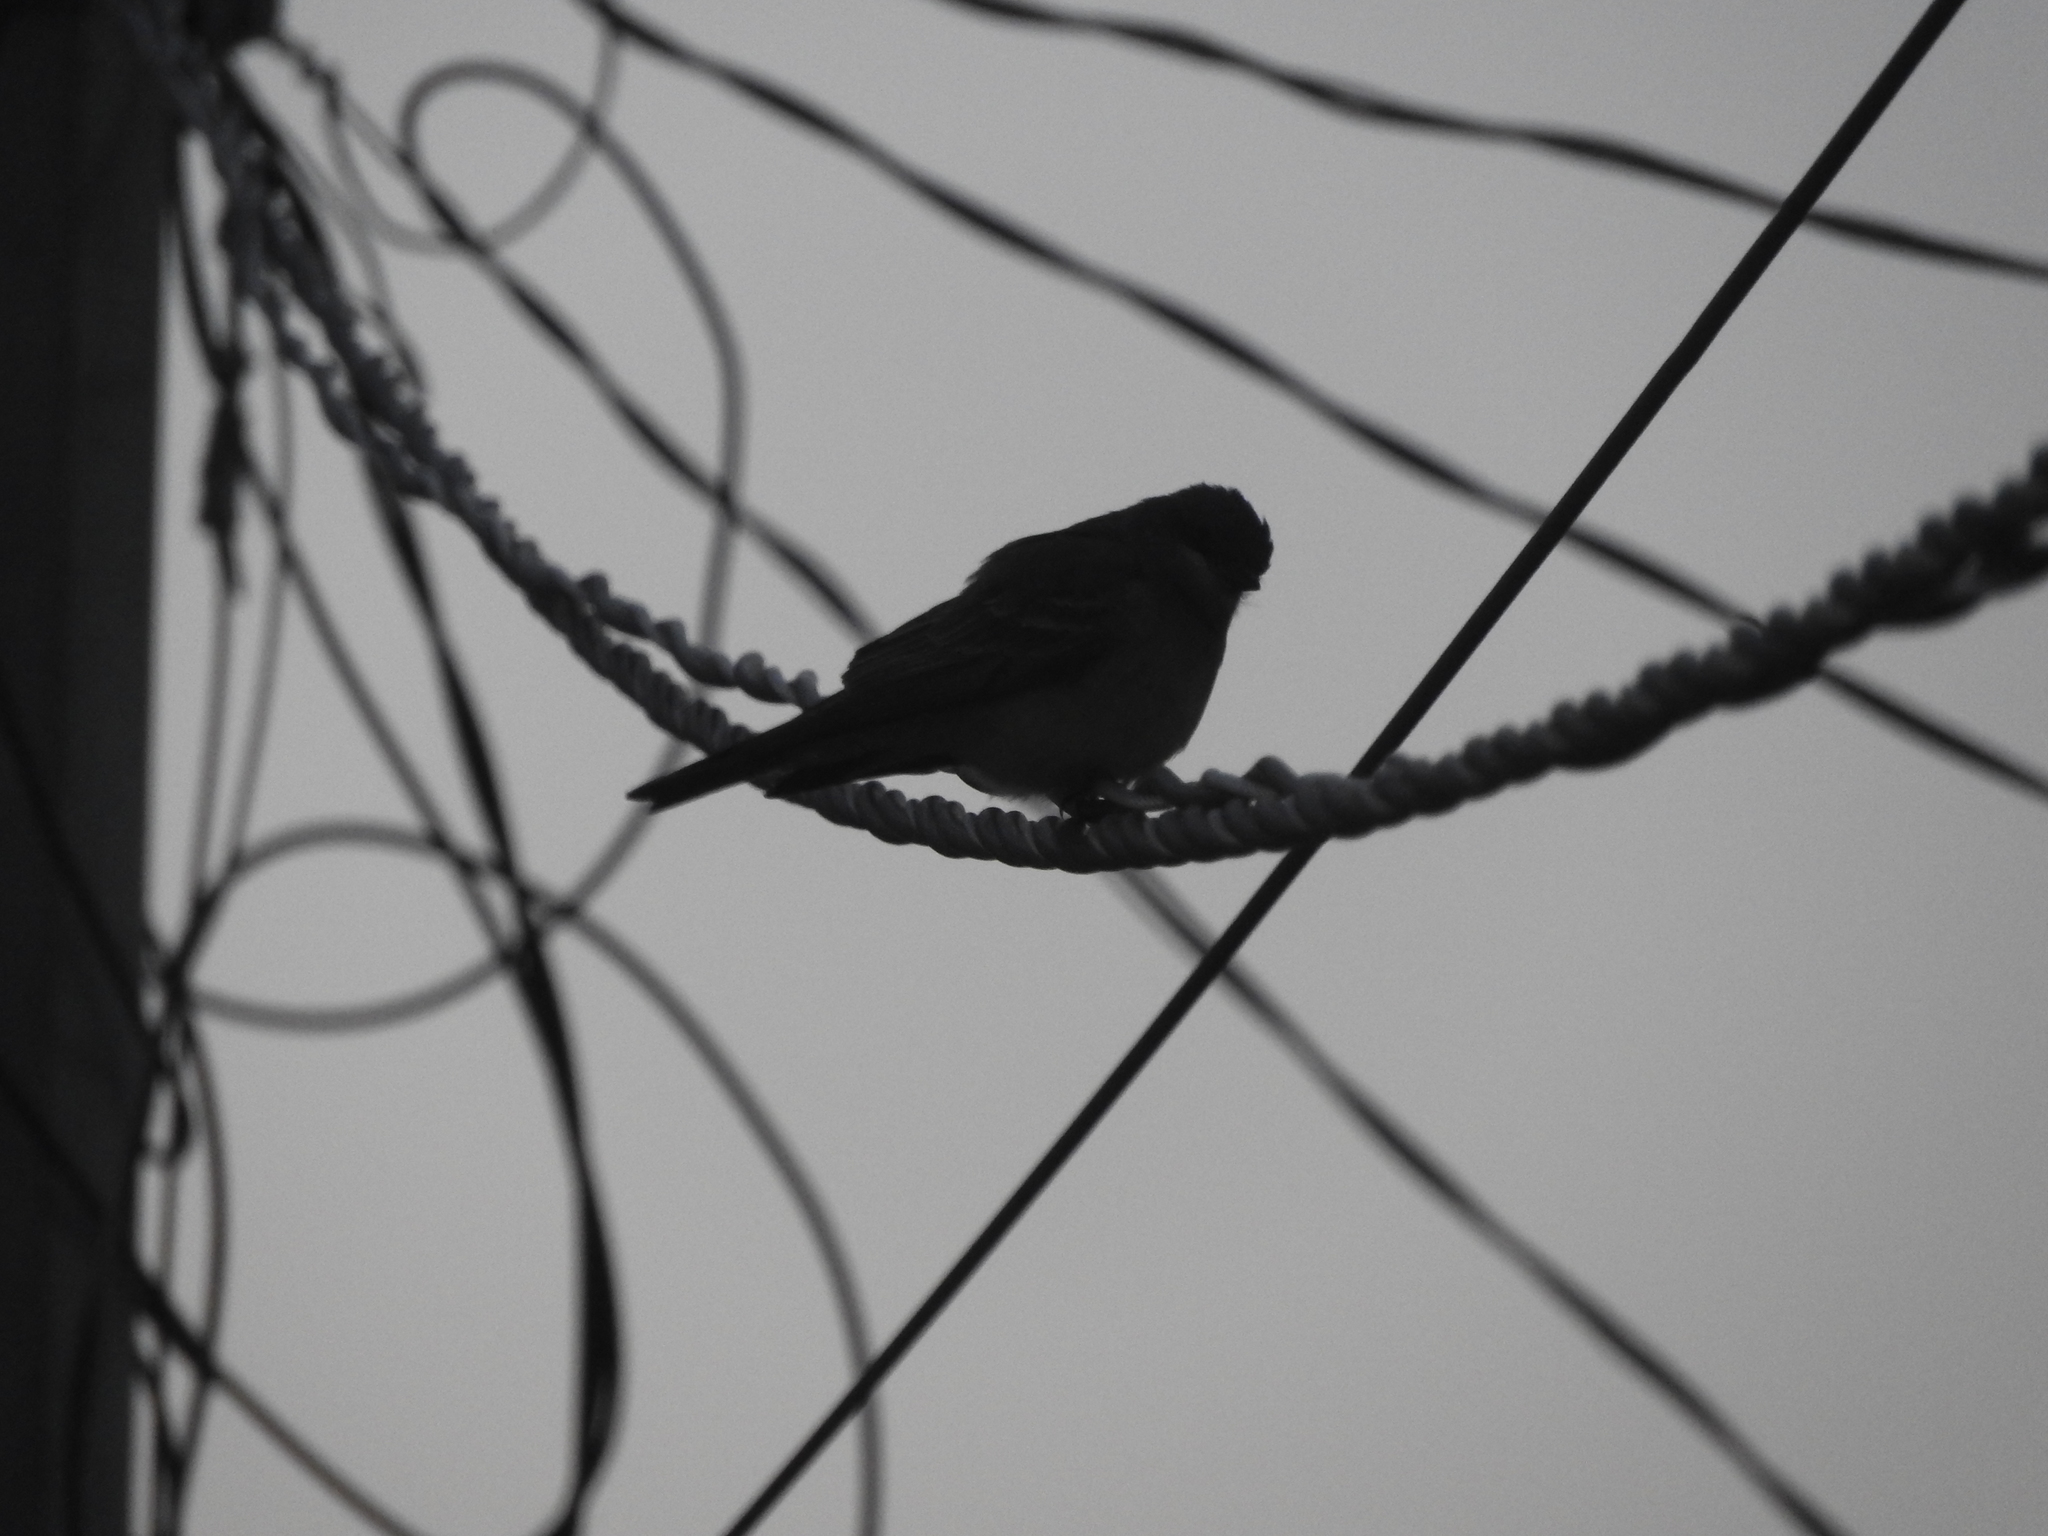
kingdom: Animalia
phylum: Chordata
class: Aves
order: Passeriformes
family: Tyrannidae
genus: Tyrannus
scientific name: Tyrannus vociferans
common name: Cassin's kingbird
